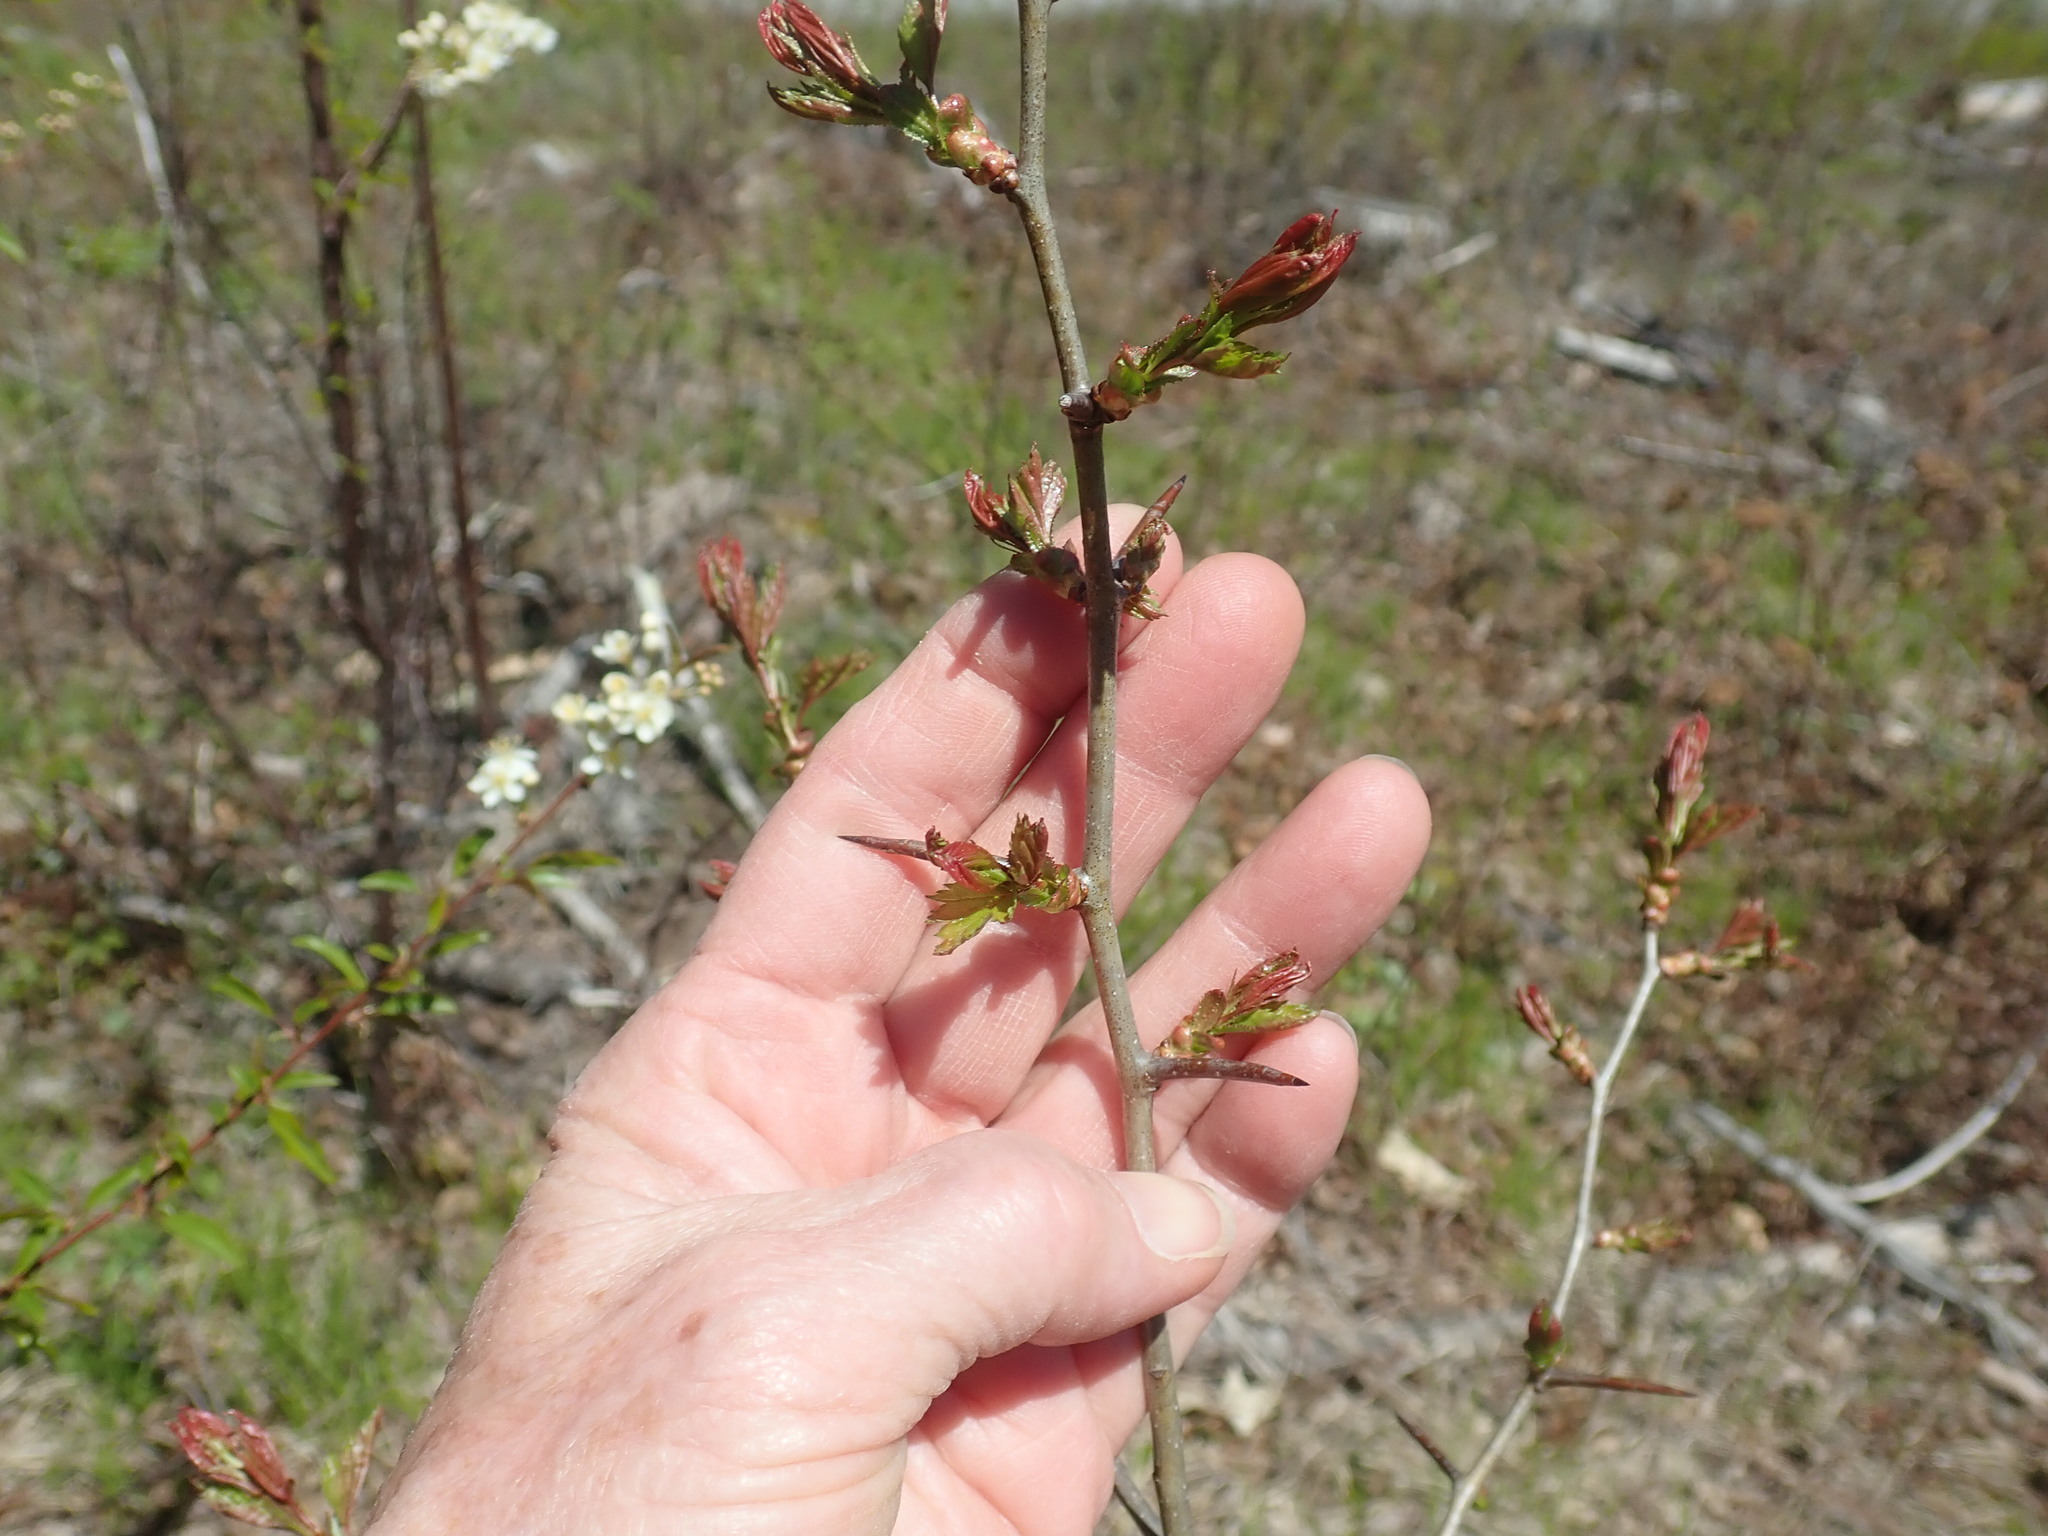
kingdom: Plantae
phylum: Tracheophyta
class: Magnoliopsida
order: Rosales
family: Rosaceae
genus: Crataegus
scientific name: Crataegus
